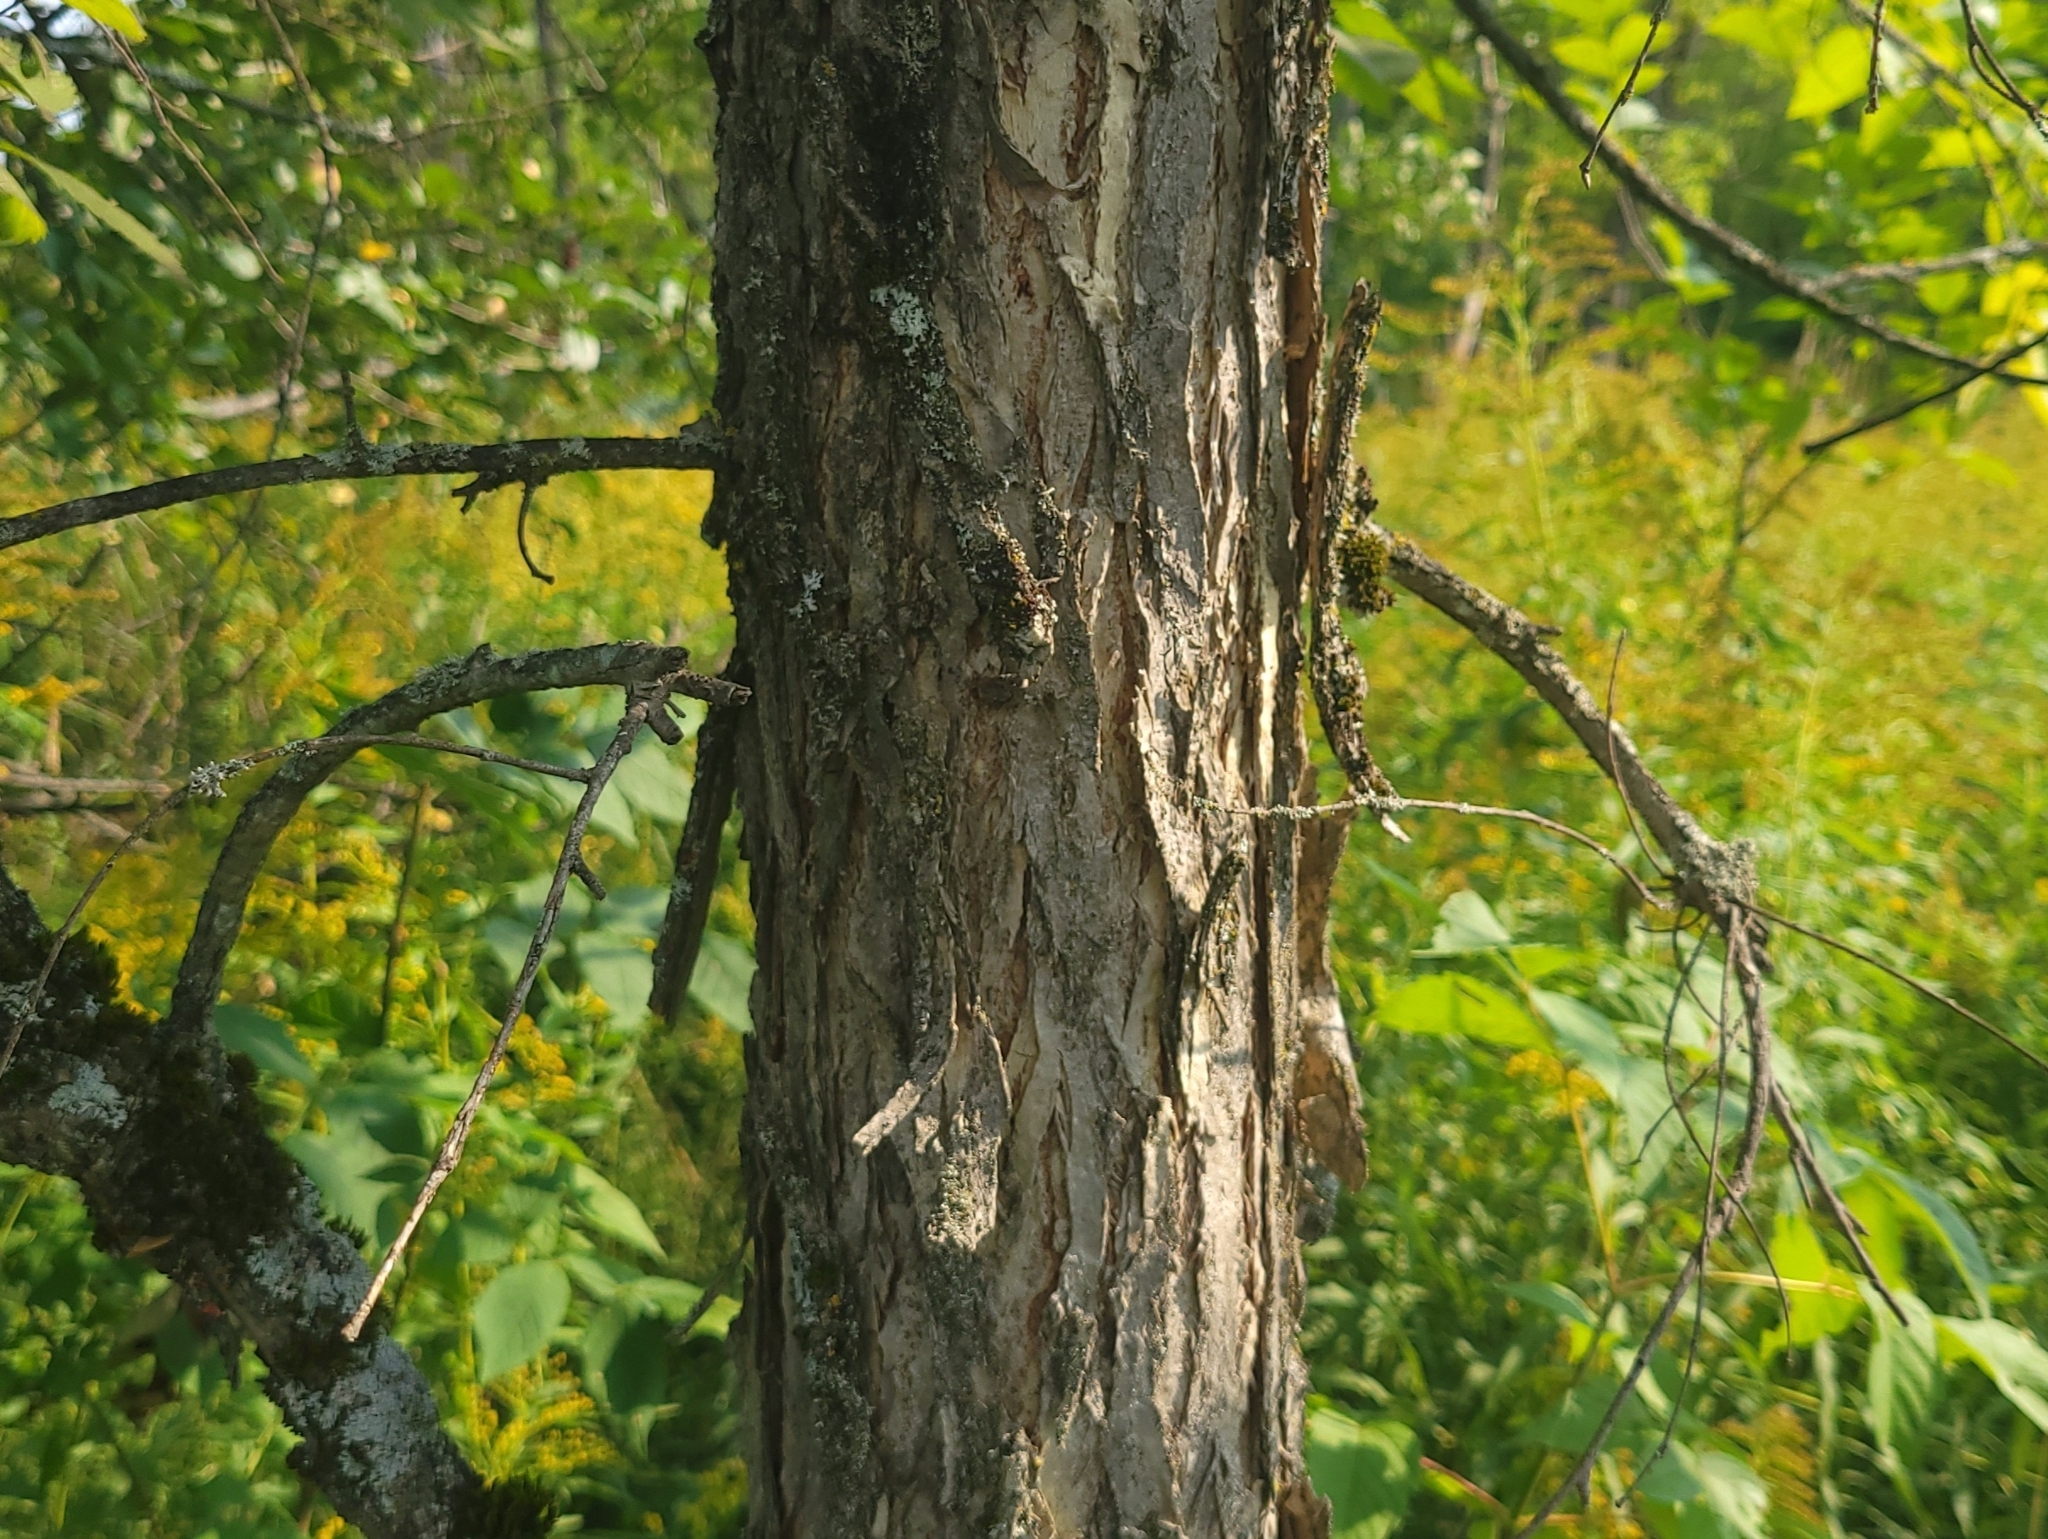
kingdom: Plantae
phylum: Tracheophyta
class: Magnoliopsida
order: Rosales
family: Ulmaceae
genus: Ulmus
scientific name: Ulmus americana
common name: American elm
